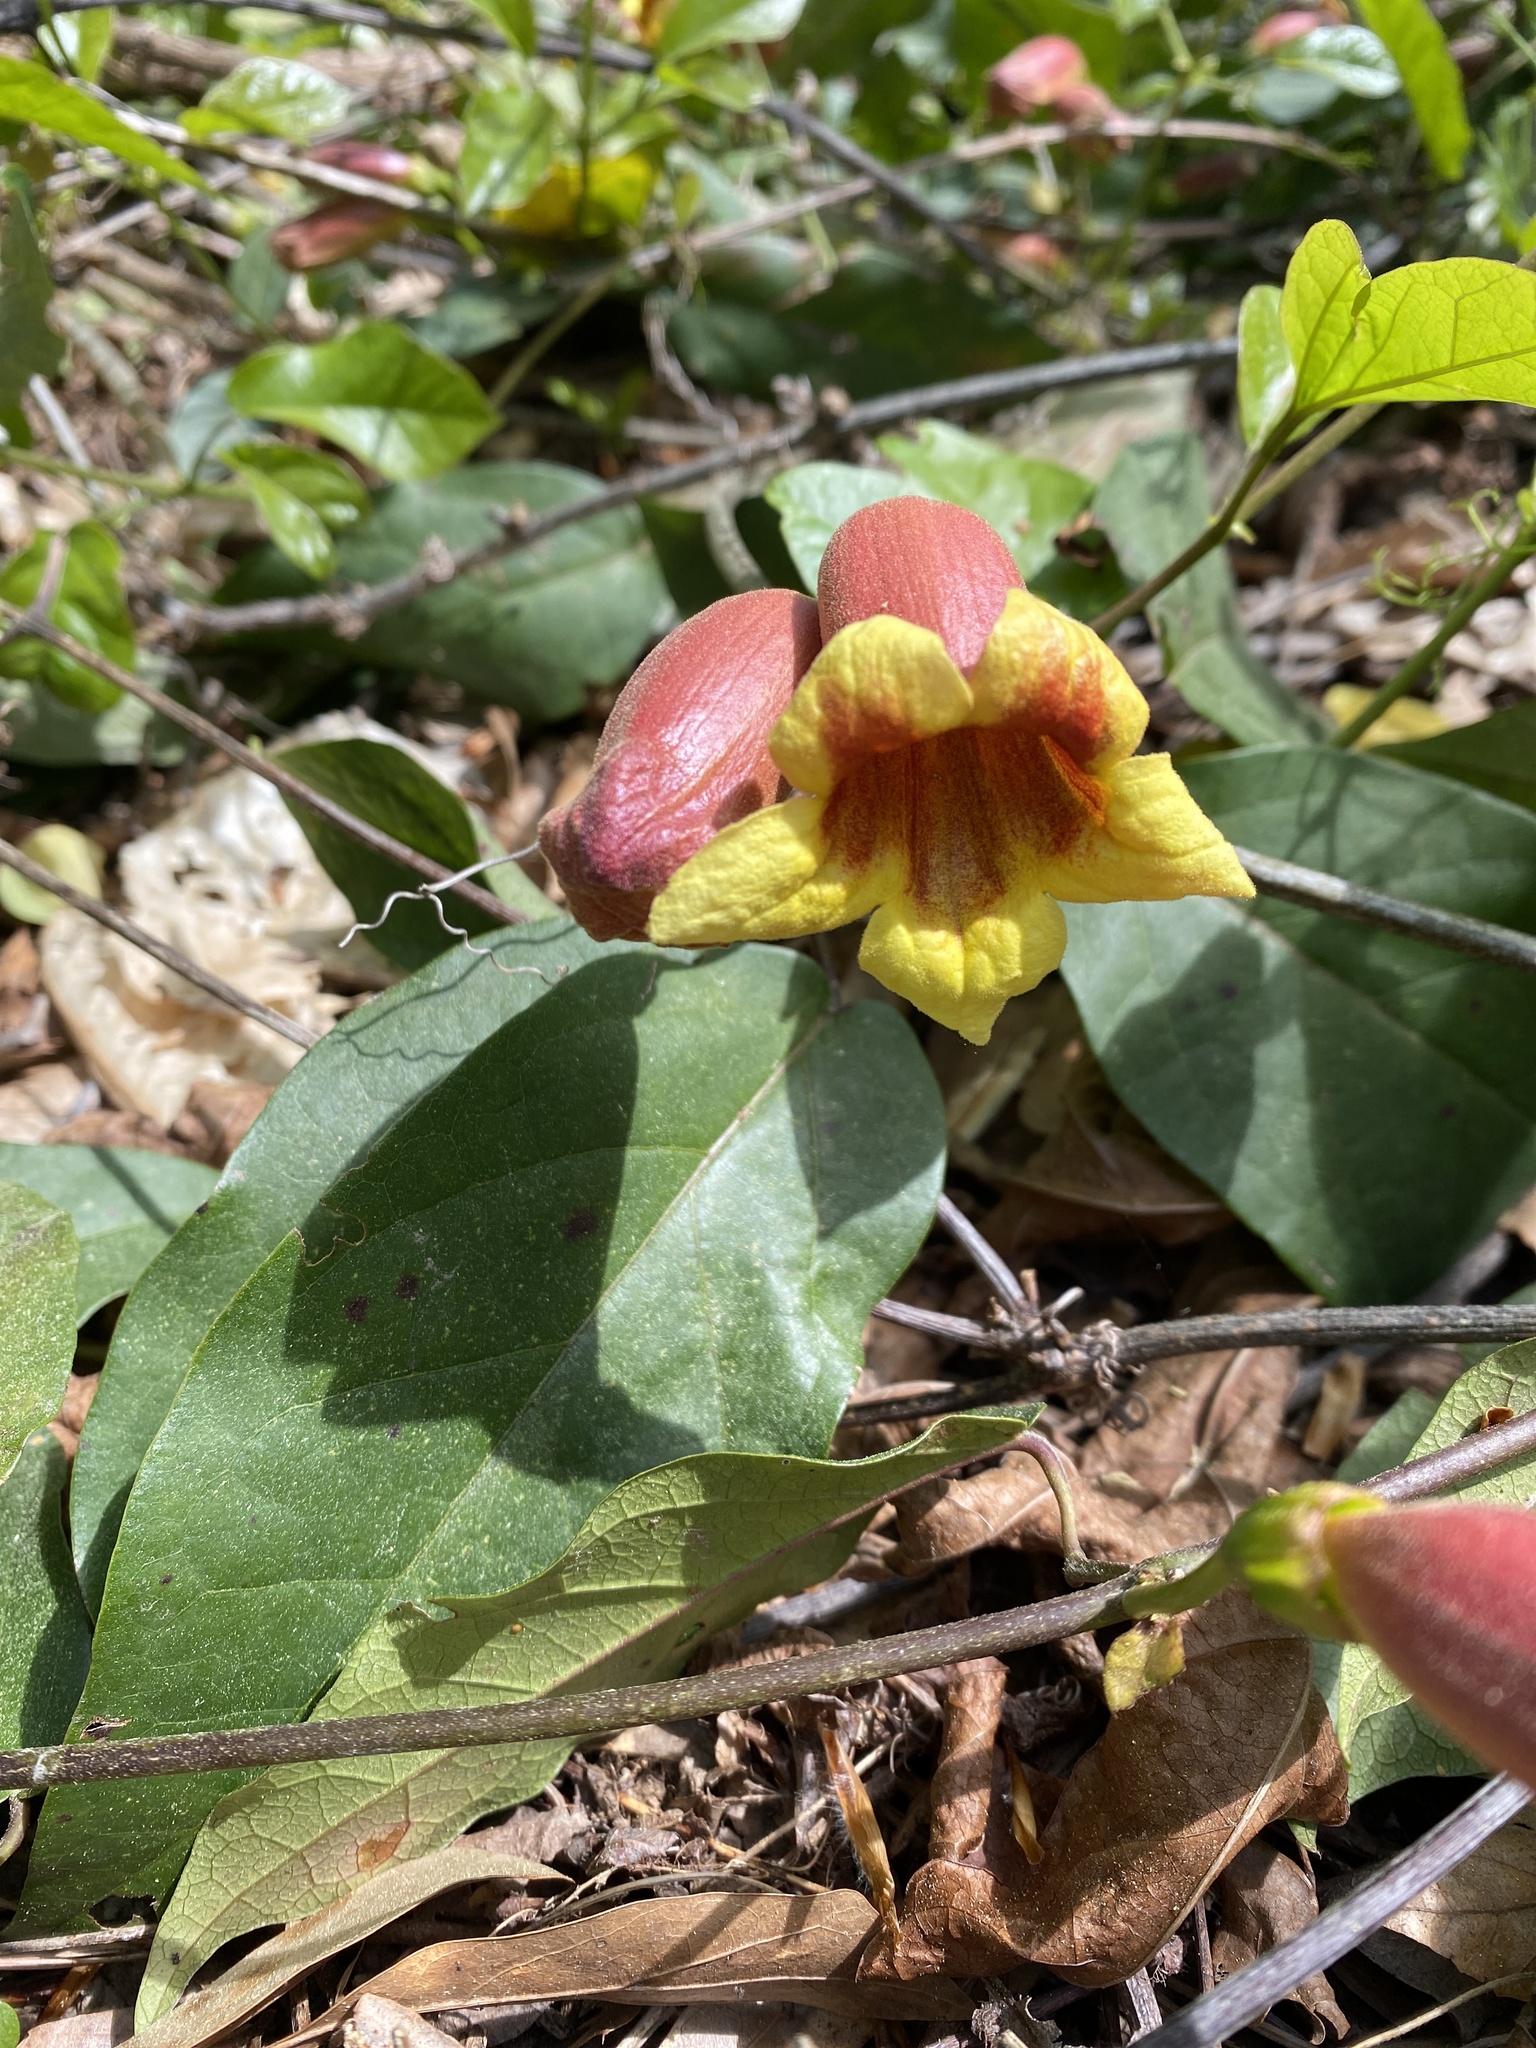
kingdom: Plantae
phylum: Tracheophyta
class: Magnoliopsida
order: Lamiales
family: Bignoniaceae
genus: Bignonia
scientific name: Bignonia capreolata
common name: Crossvine
